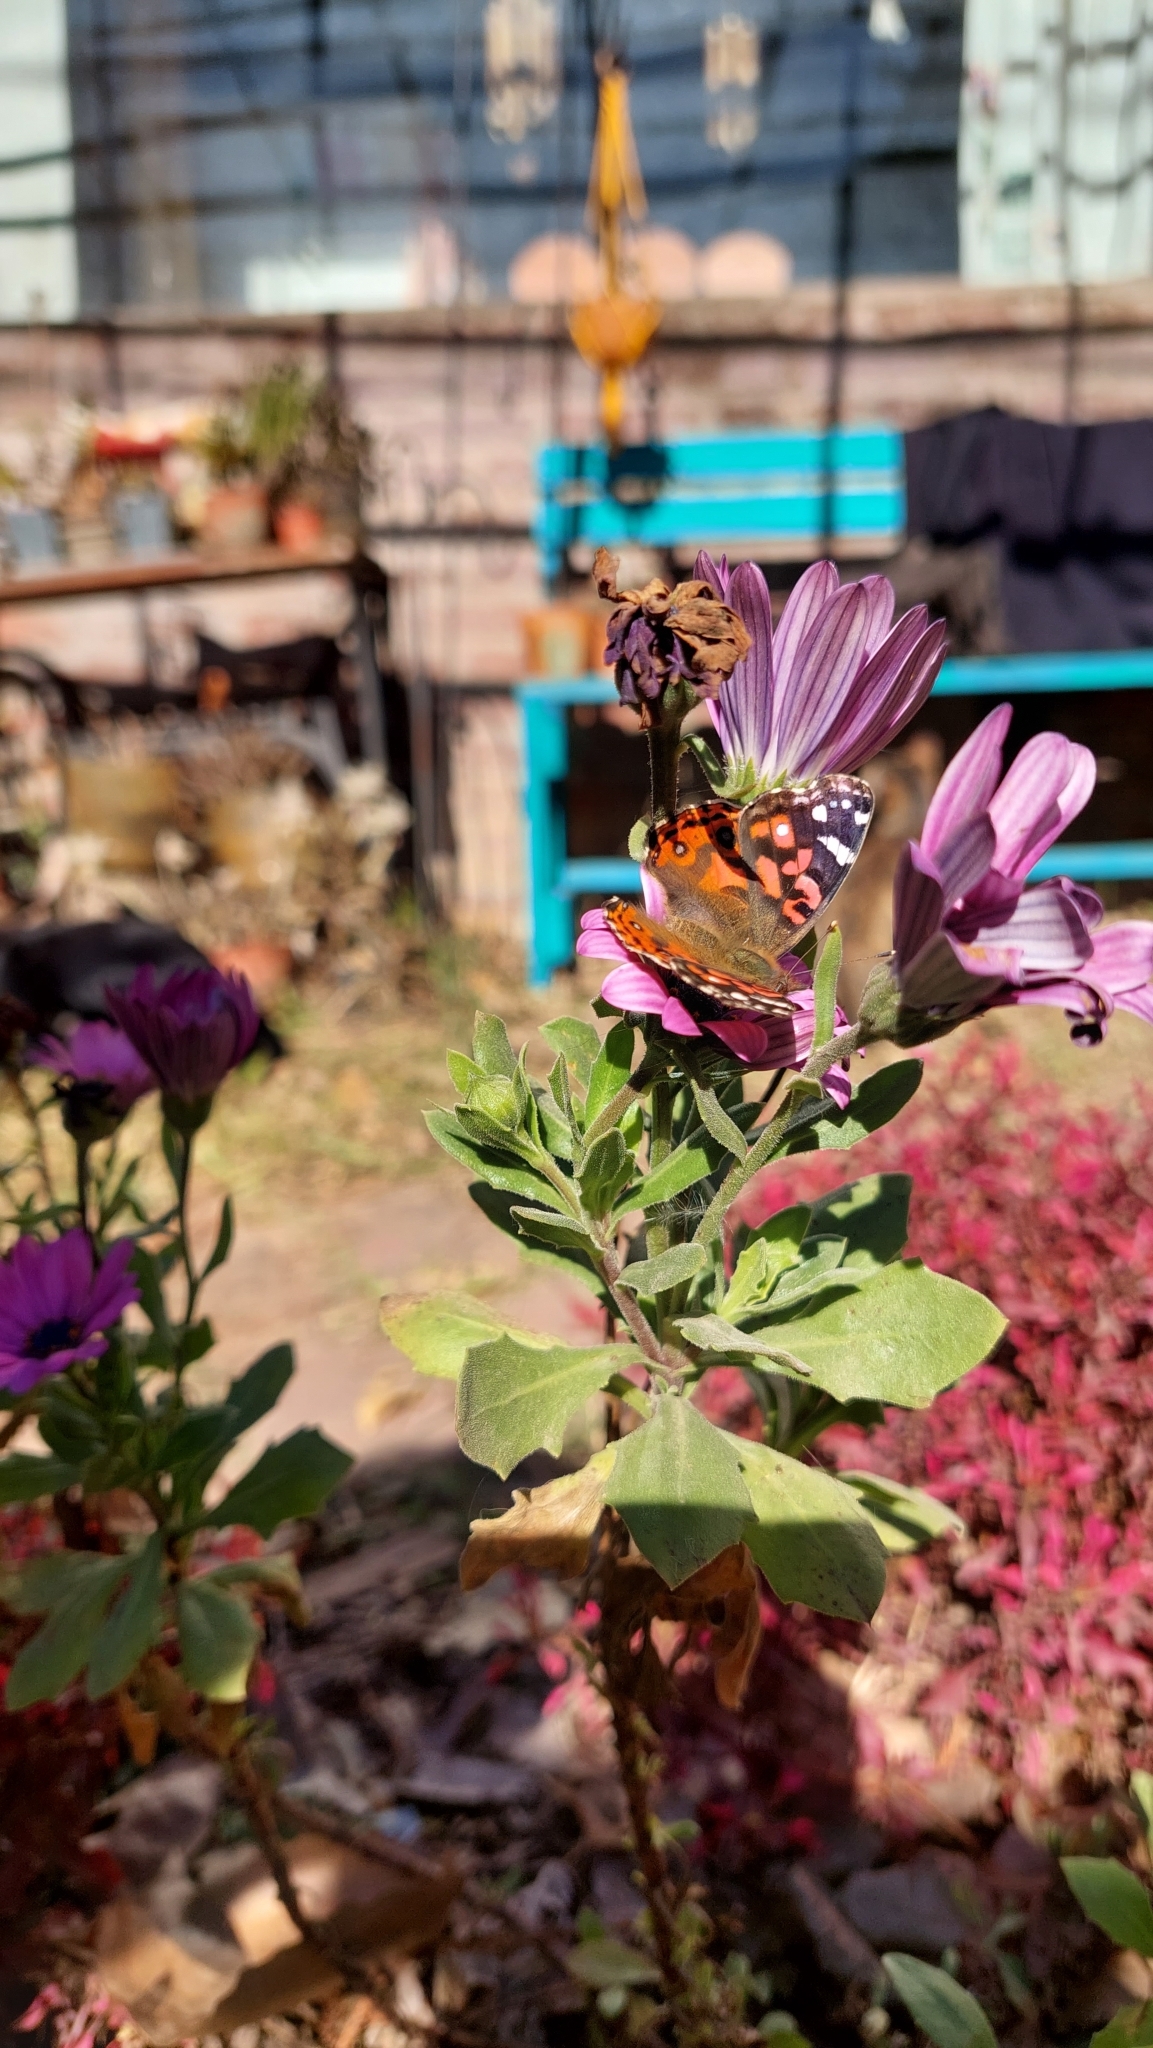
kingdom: Animalia
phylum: Arthropoda
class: Insecta
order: Lepidoptera
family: Nymphalidae
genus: Vanessa
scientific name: Vanessa braziliensis
